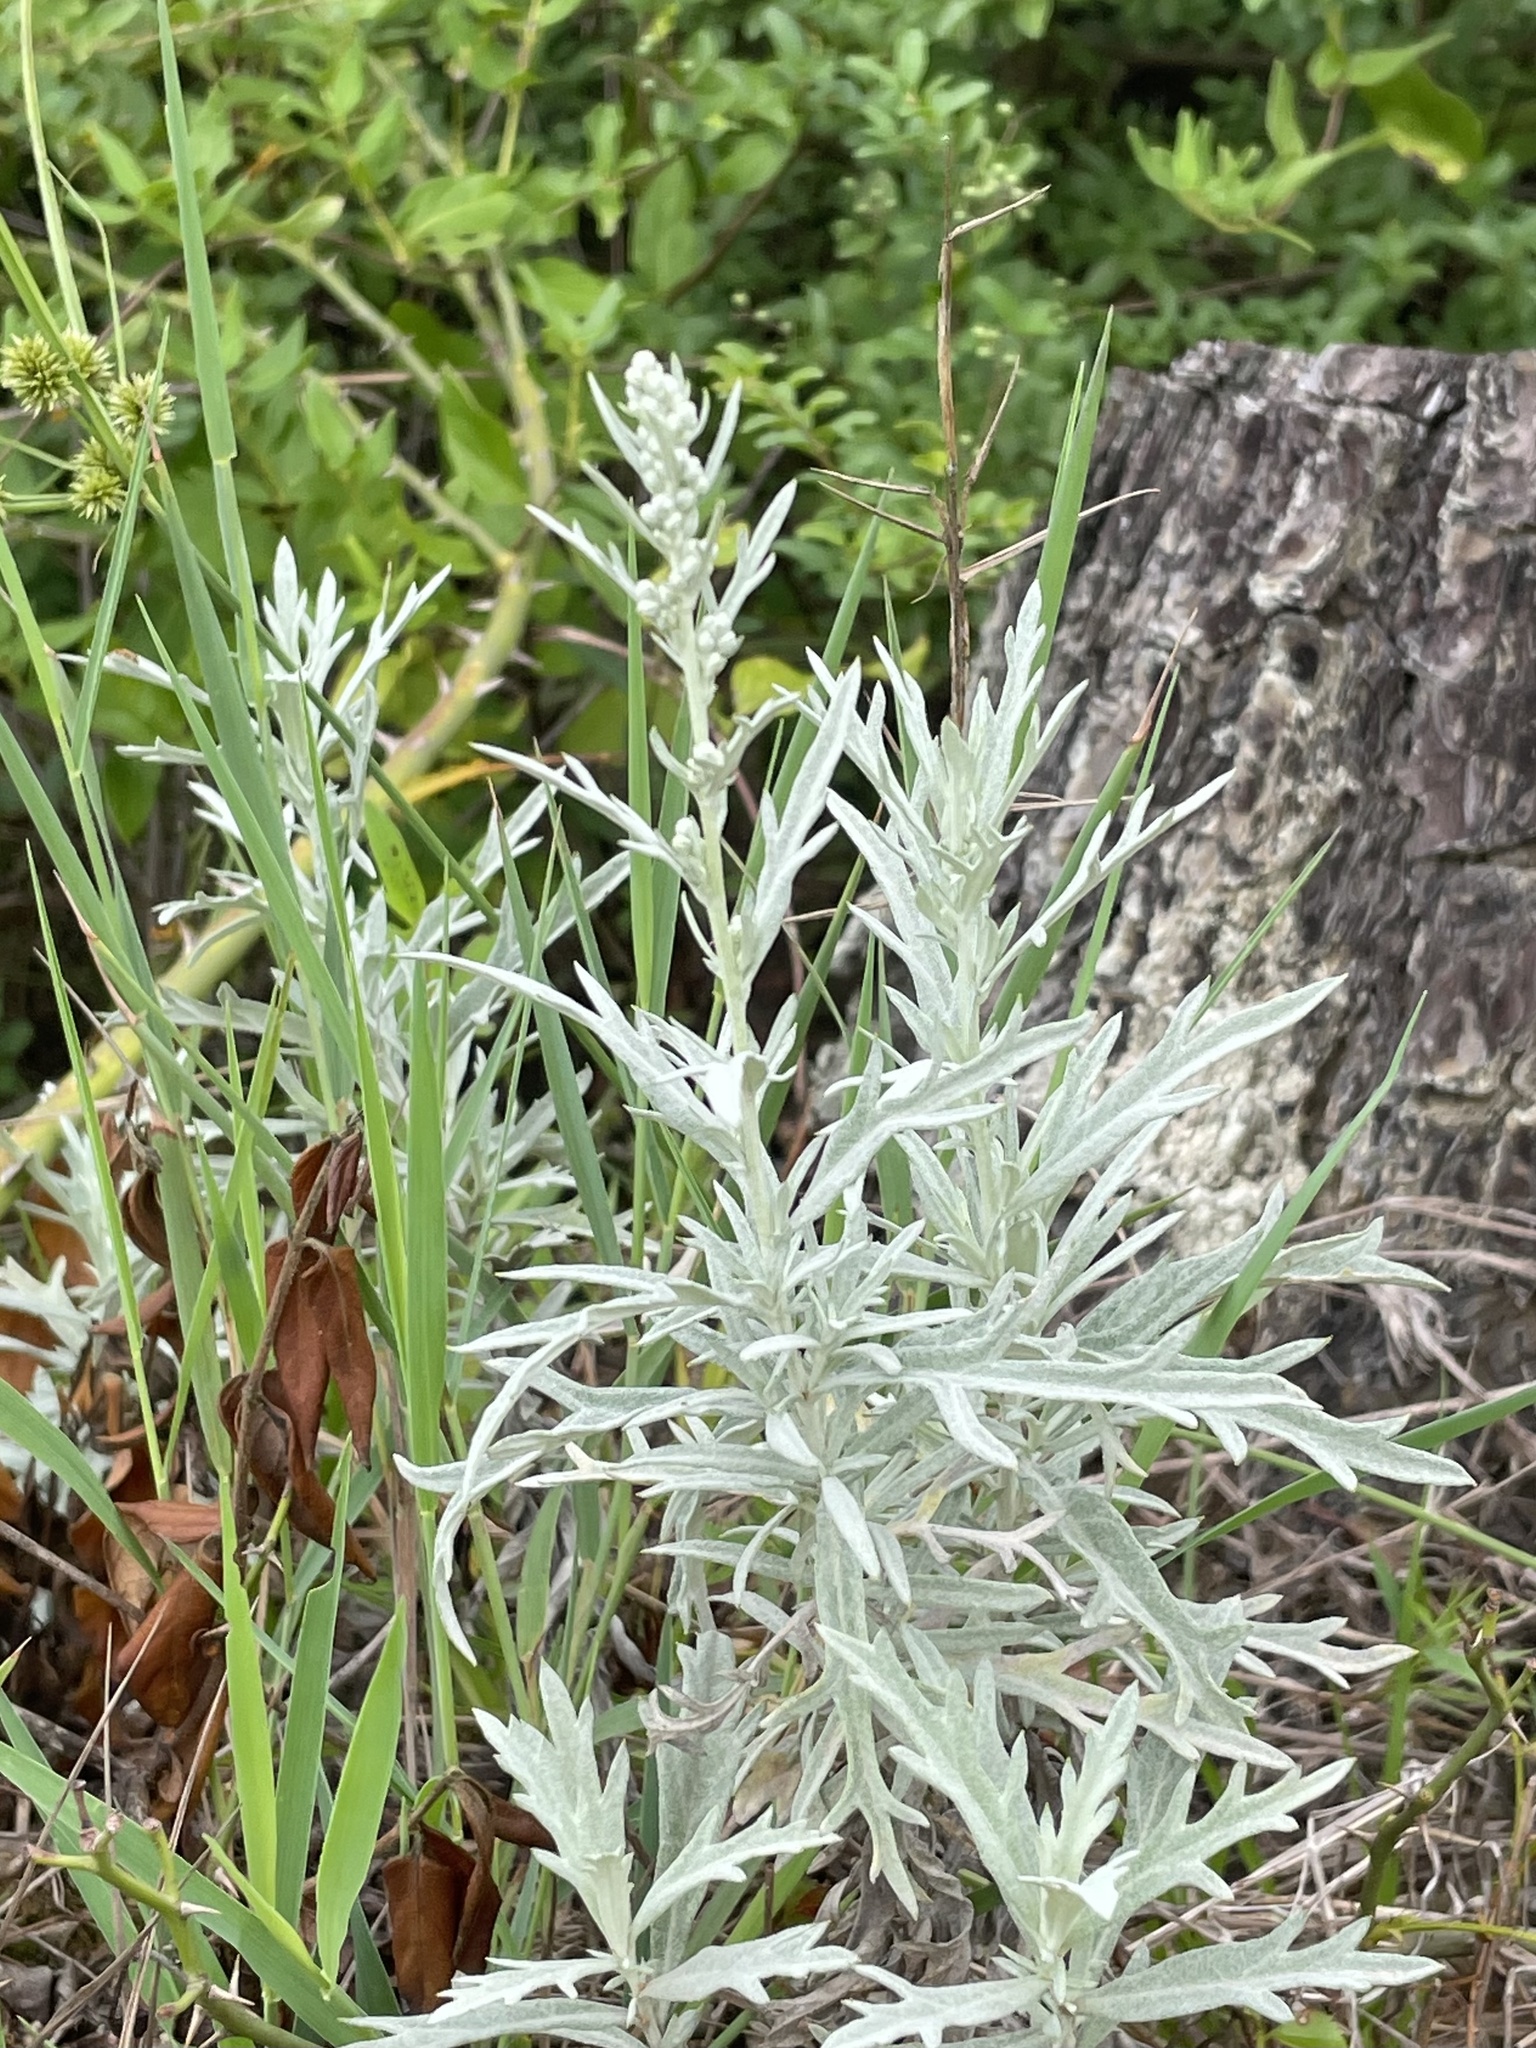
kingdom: Plantae
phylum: Tracheophyta
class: Magnoliopsida
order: Asterales
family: Asteraceae
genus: Artemisia
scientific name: Artemisia ludoviciana
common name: Western mugwort
